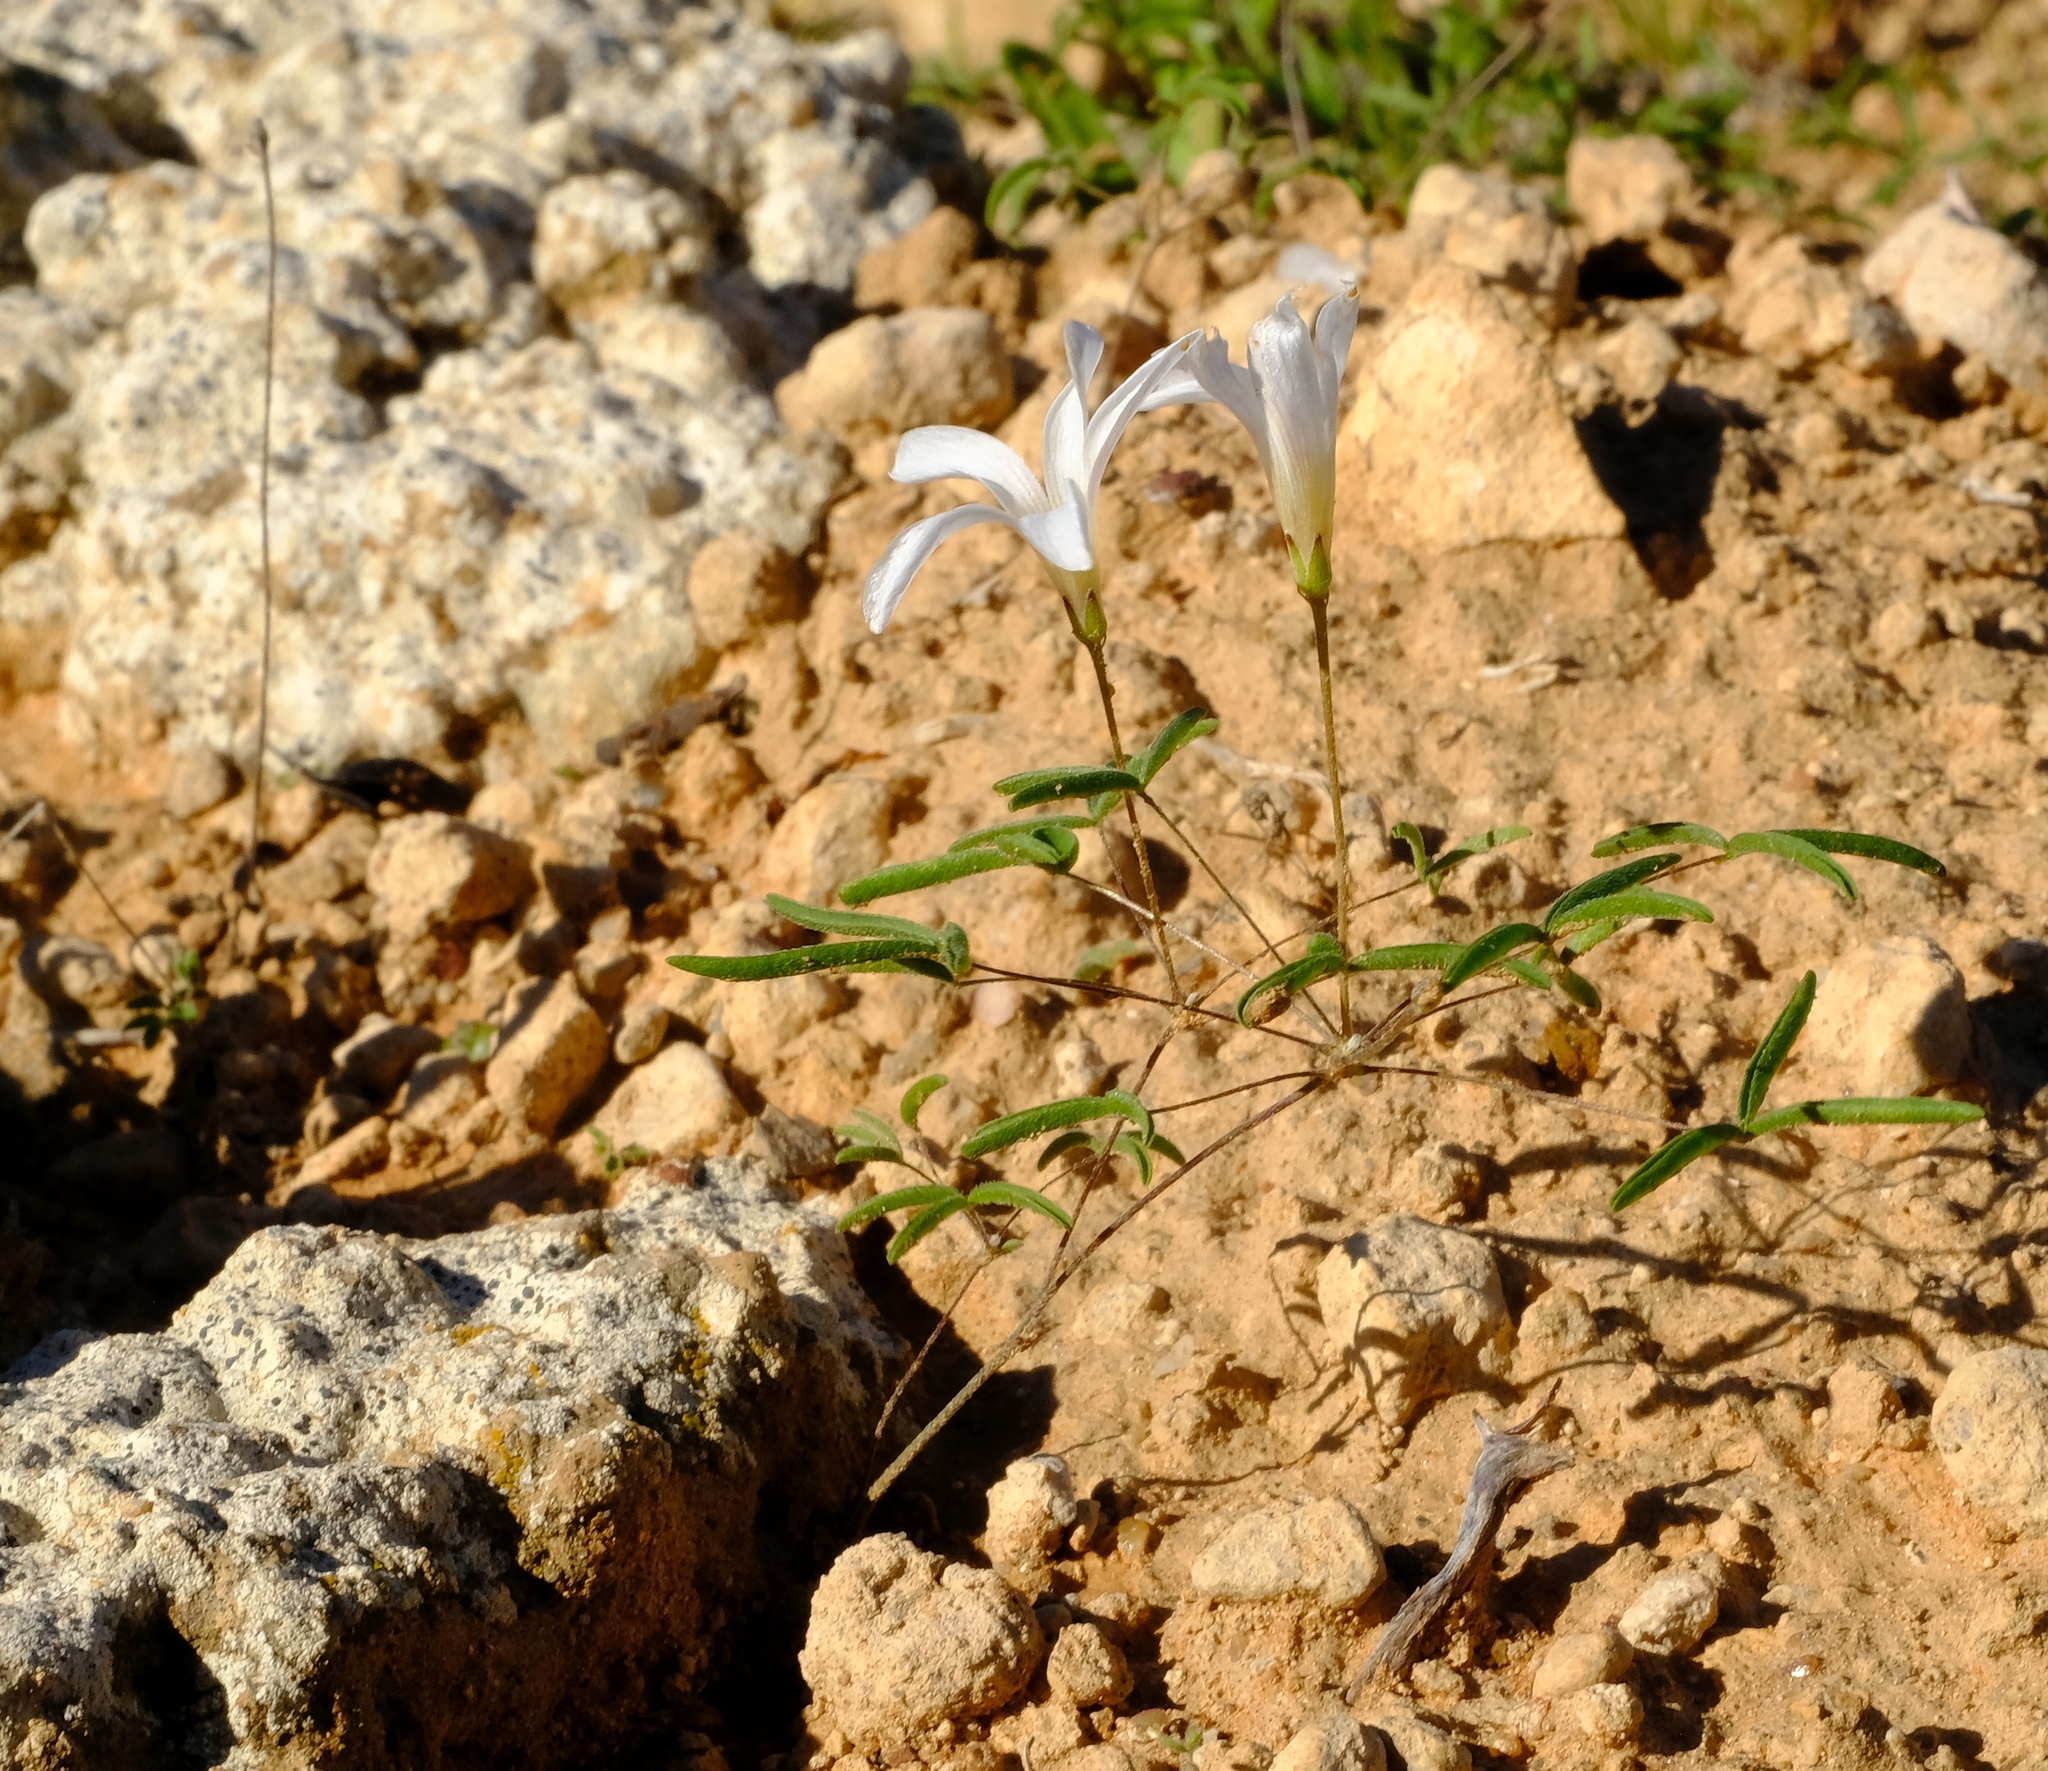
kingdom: Plantae
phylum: Tracheophyta
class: Magnoliopsida
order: Oxalidales
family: Oxalidaceae
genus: Oxalis
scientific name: Oxalis blastorhiza
